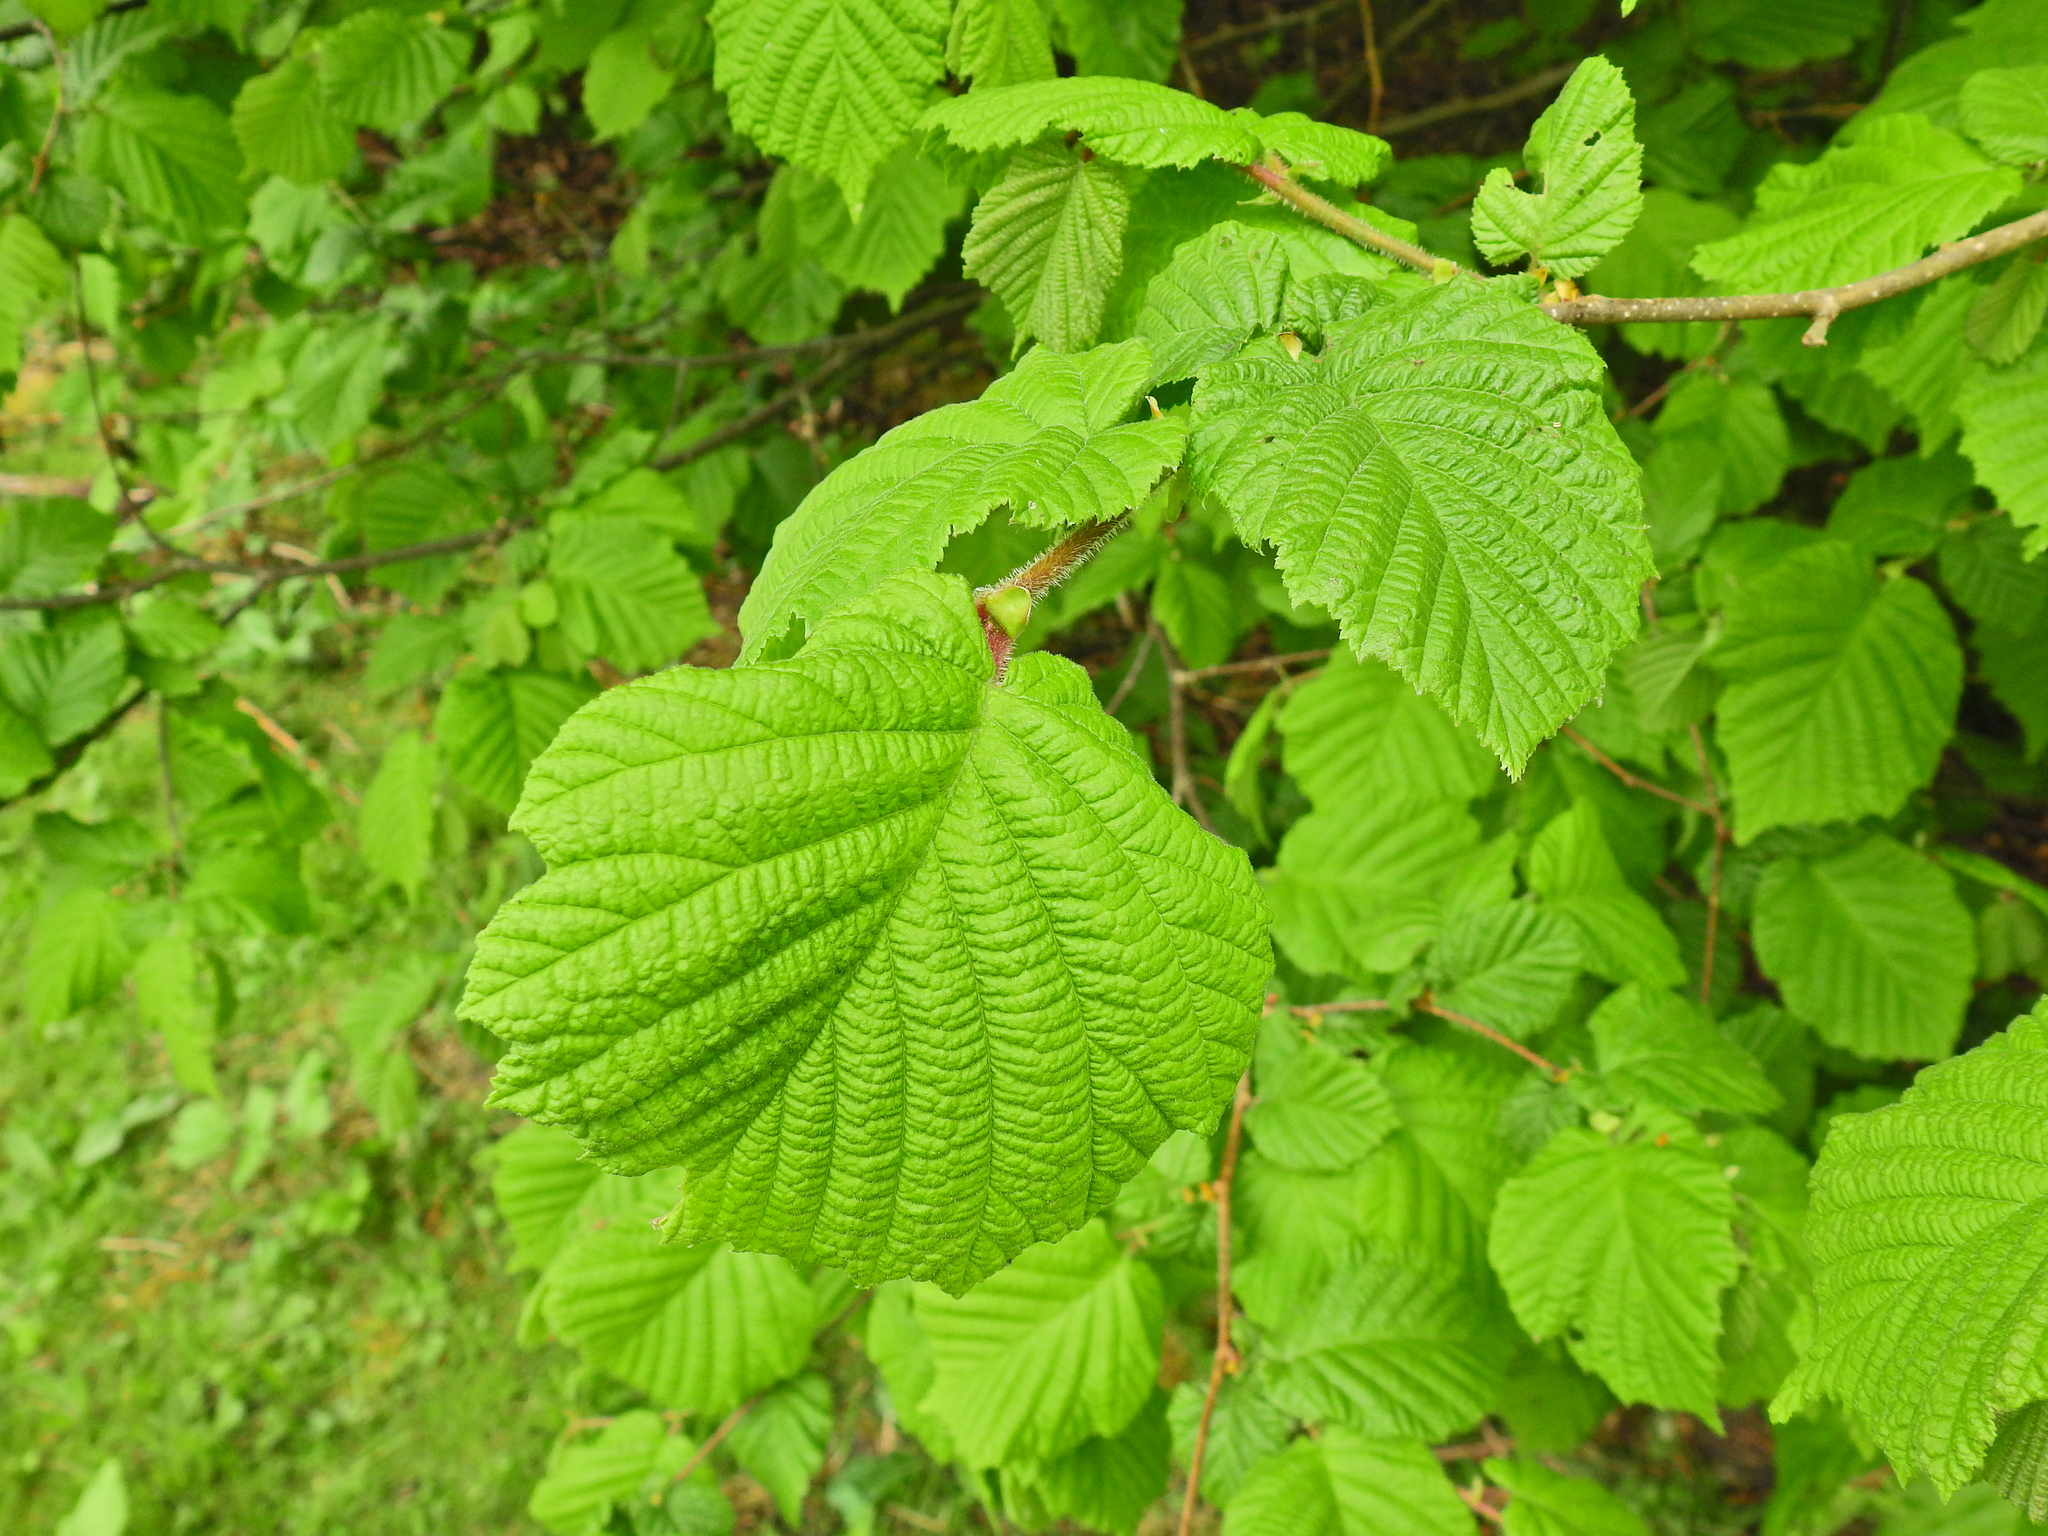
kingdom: Plantae
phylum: Tracheophyta
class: Magnoliopsida
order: Fagales
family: Betulaceae
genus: Corylus
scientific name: Corylus avellana
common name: European hazel
